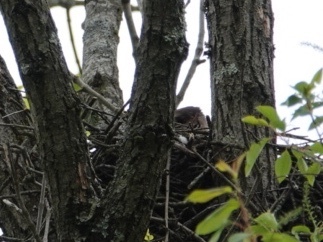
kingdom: Animalia
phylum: Chordata
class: Aves
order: Accipitriformes
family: Accipitridae
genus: Accipiter
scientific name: Accipiter cooperii
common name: Cooper's hawk
